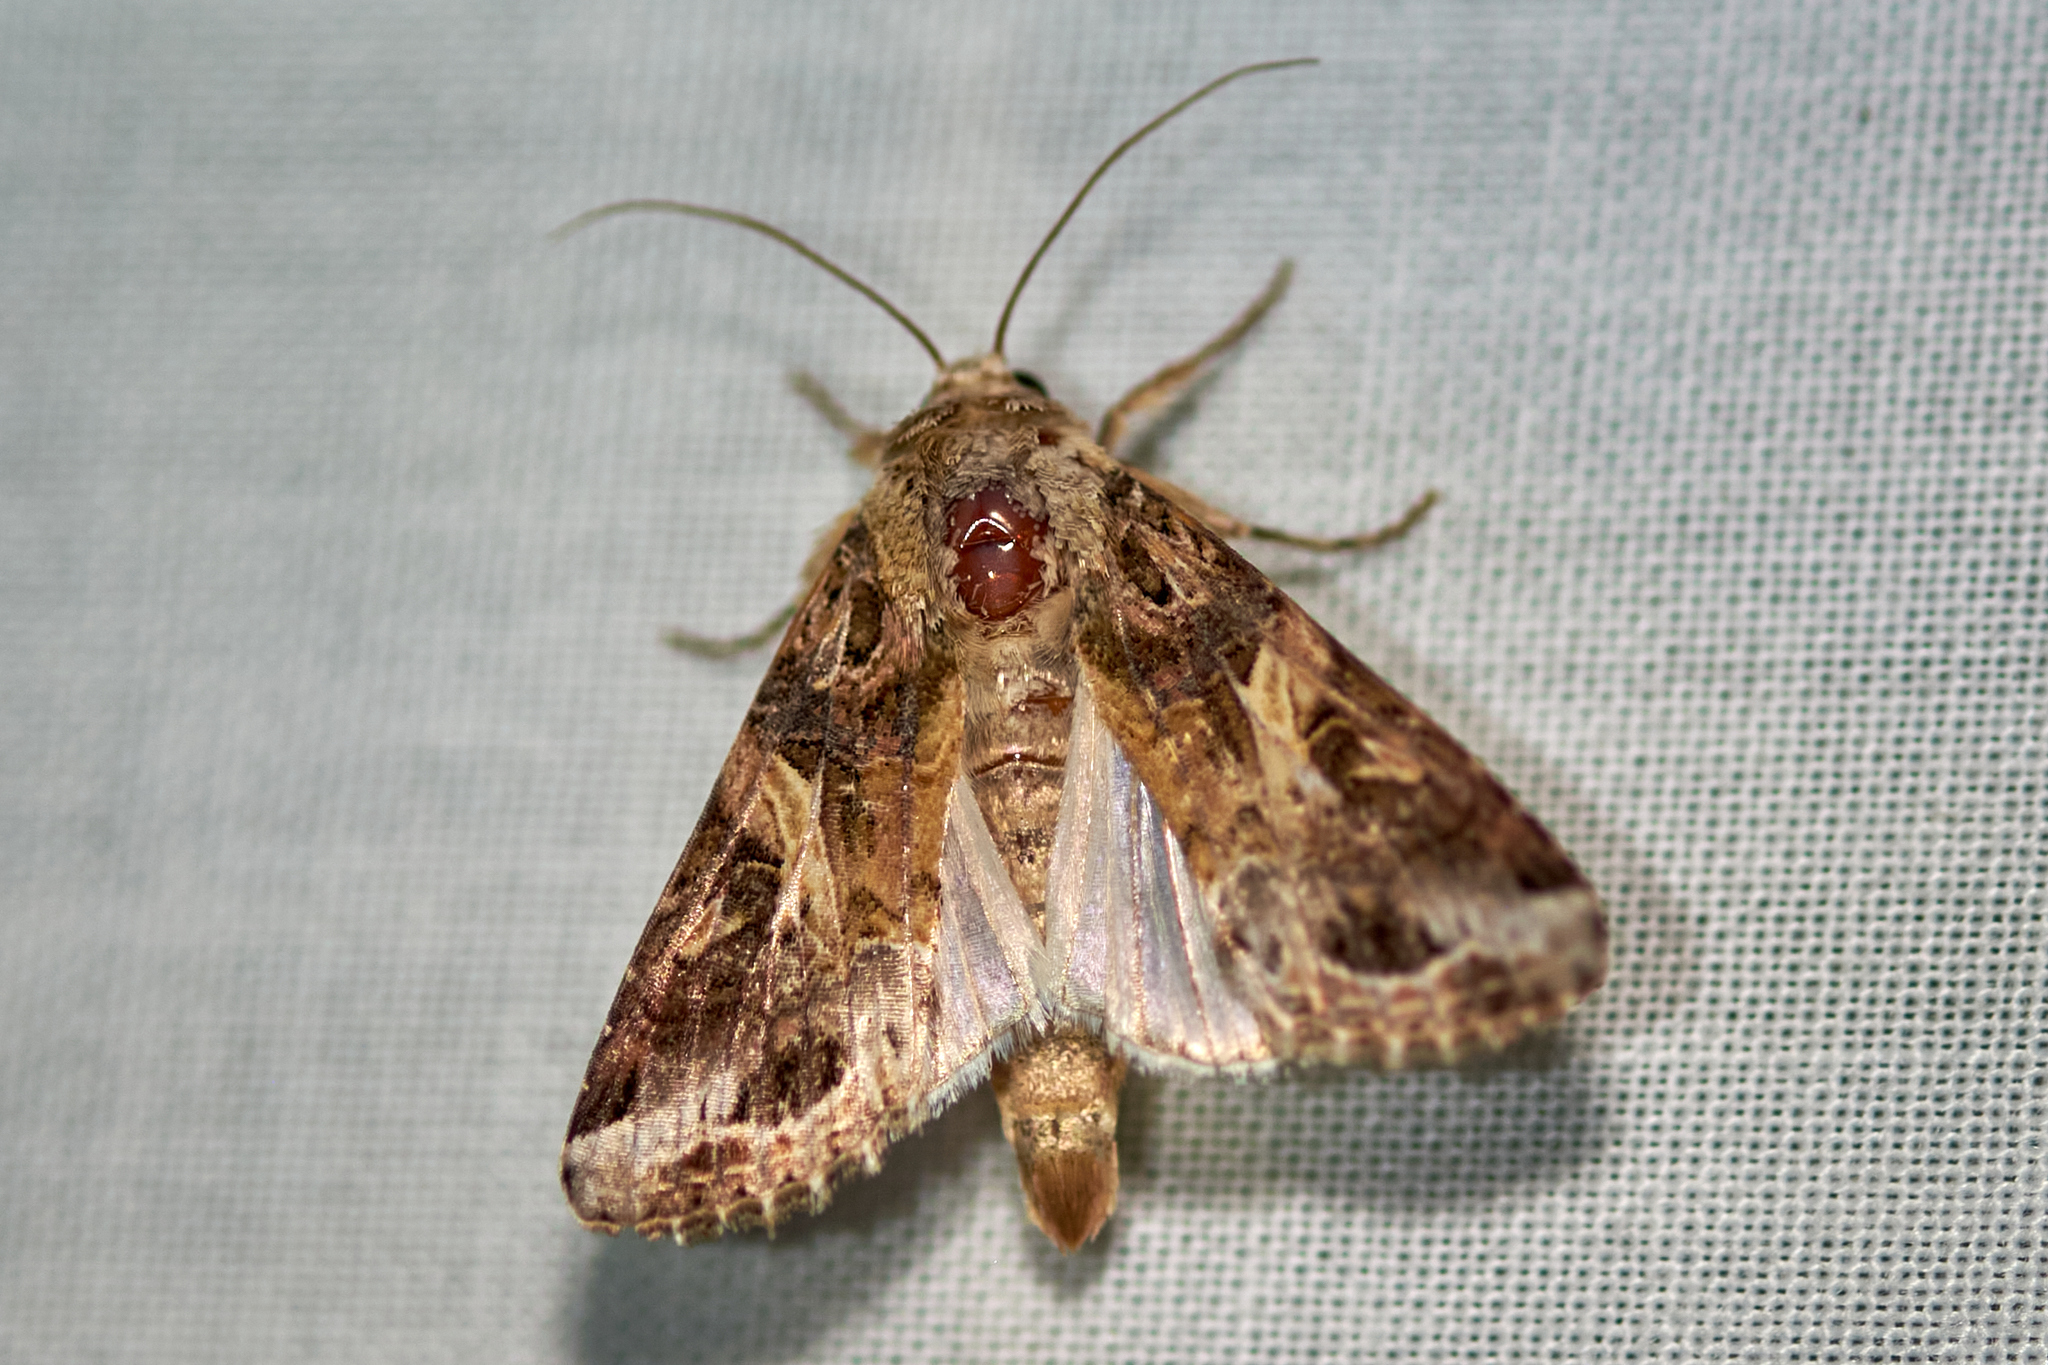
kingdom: Animalia
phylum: Arthropoda
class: Insecta
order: Lepidoptera
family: Noctuidae
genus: Spodoptera
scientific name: Spodoptera ornithogalli
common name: Yellow-striped armyworm
